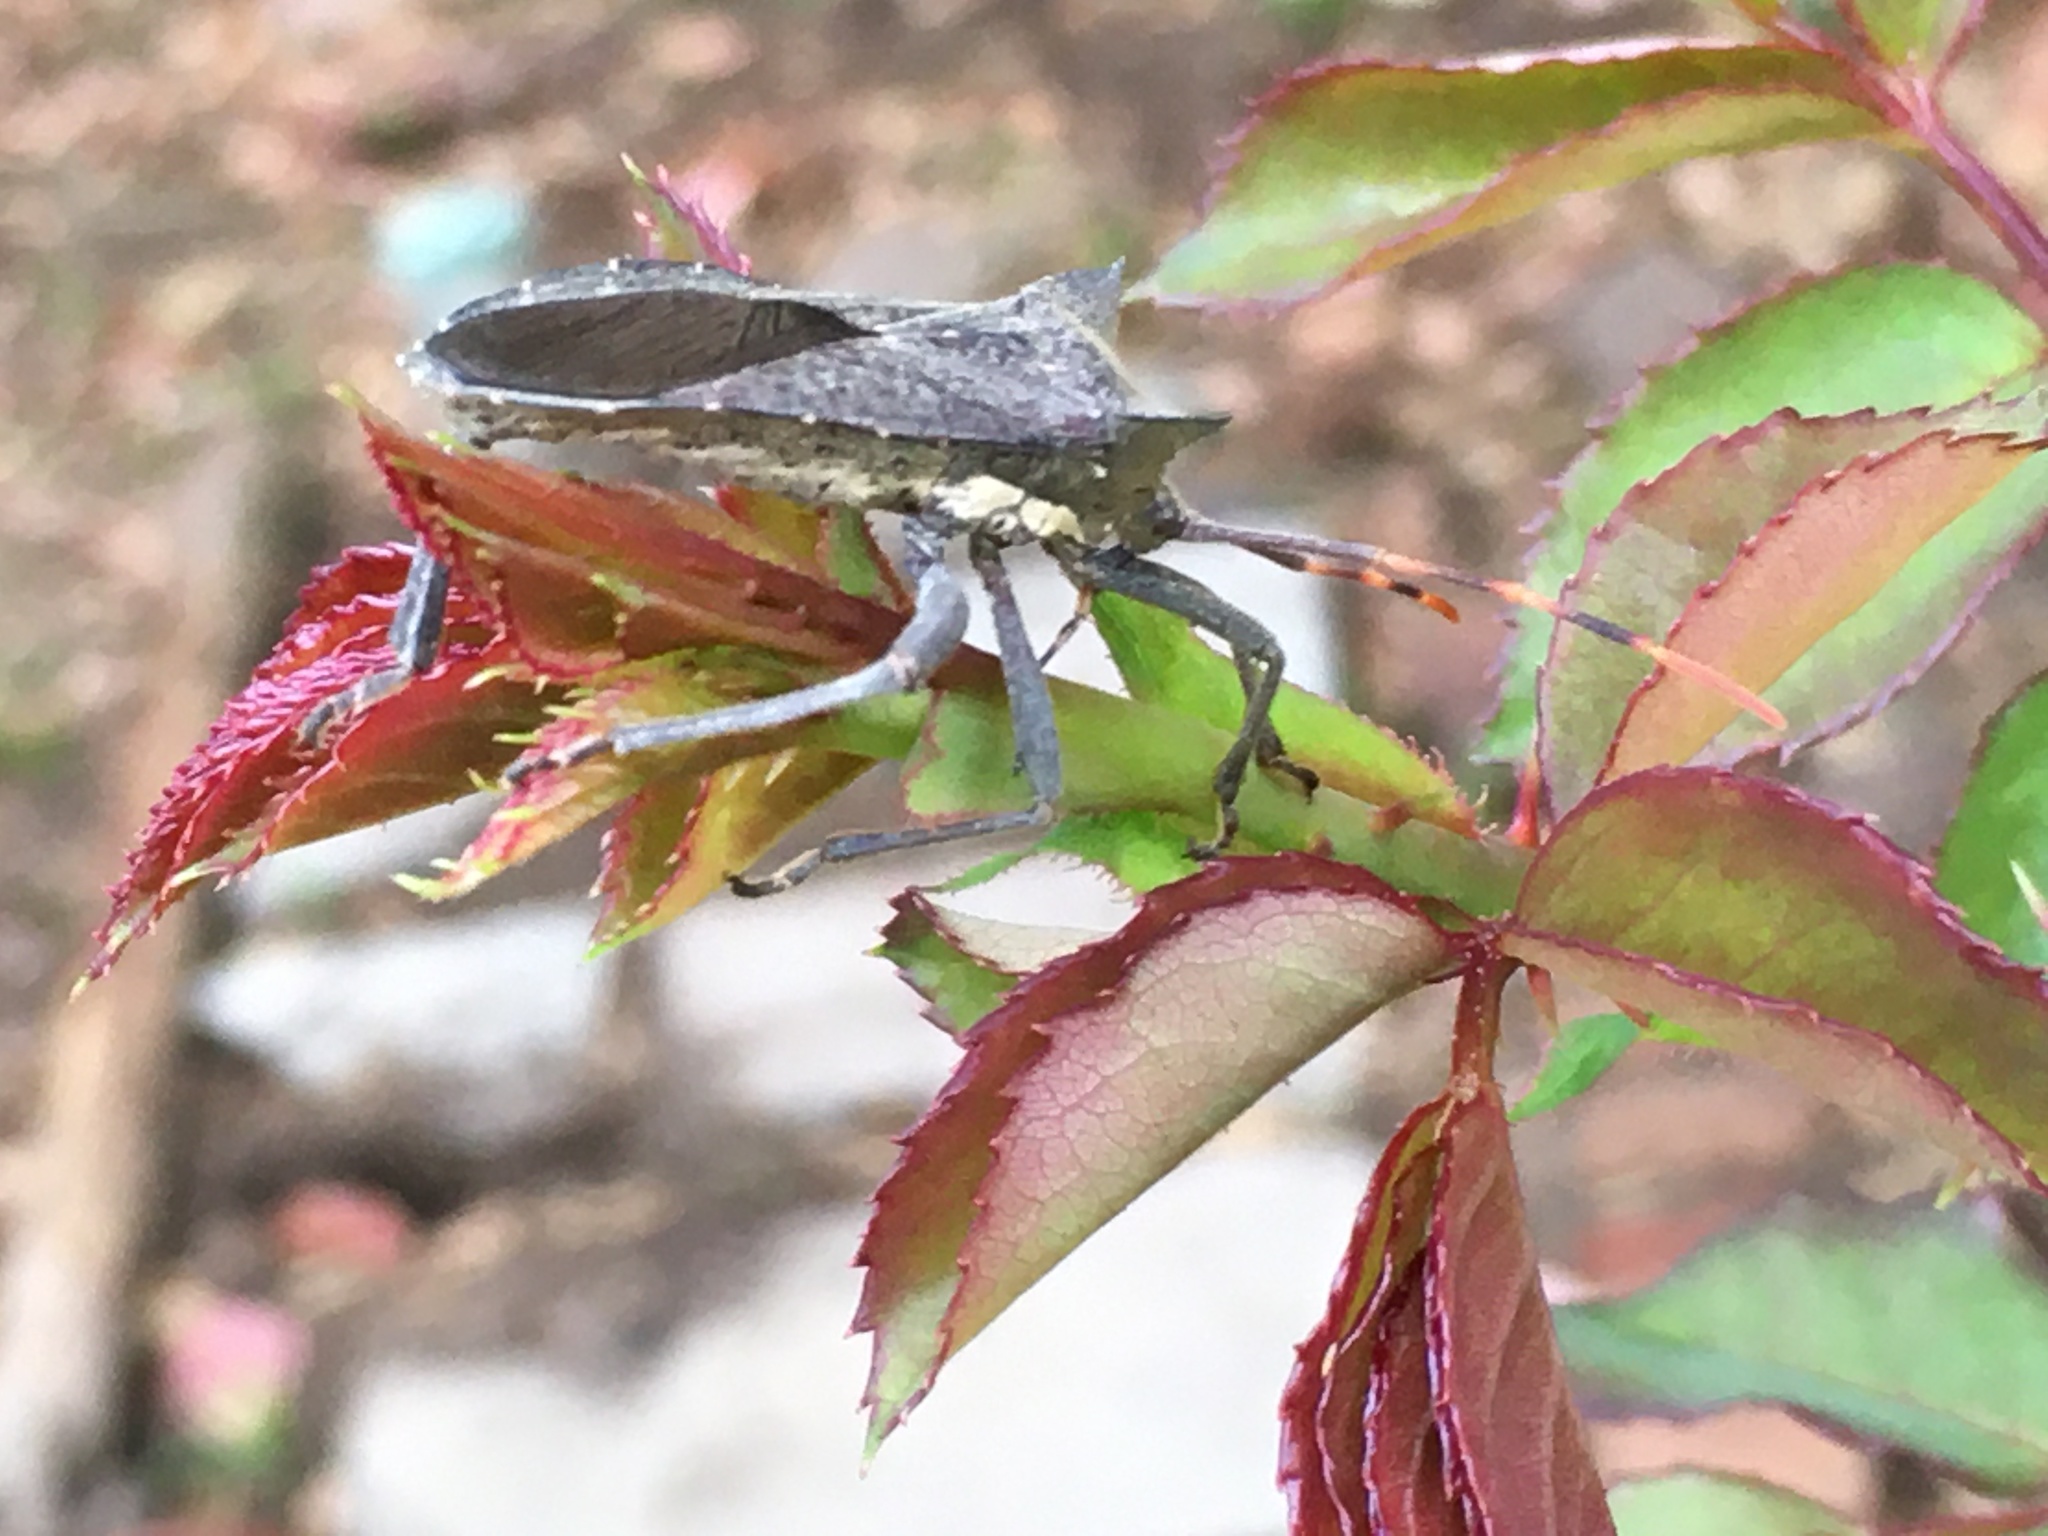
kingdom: Animalia
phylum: Arthropoda
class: Insecta
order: Hemiptera
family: Coreidae
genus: Elasmopoda
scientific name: Elasmopoda valga
